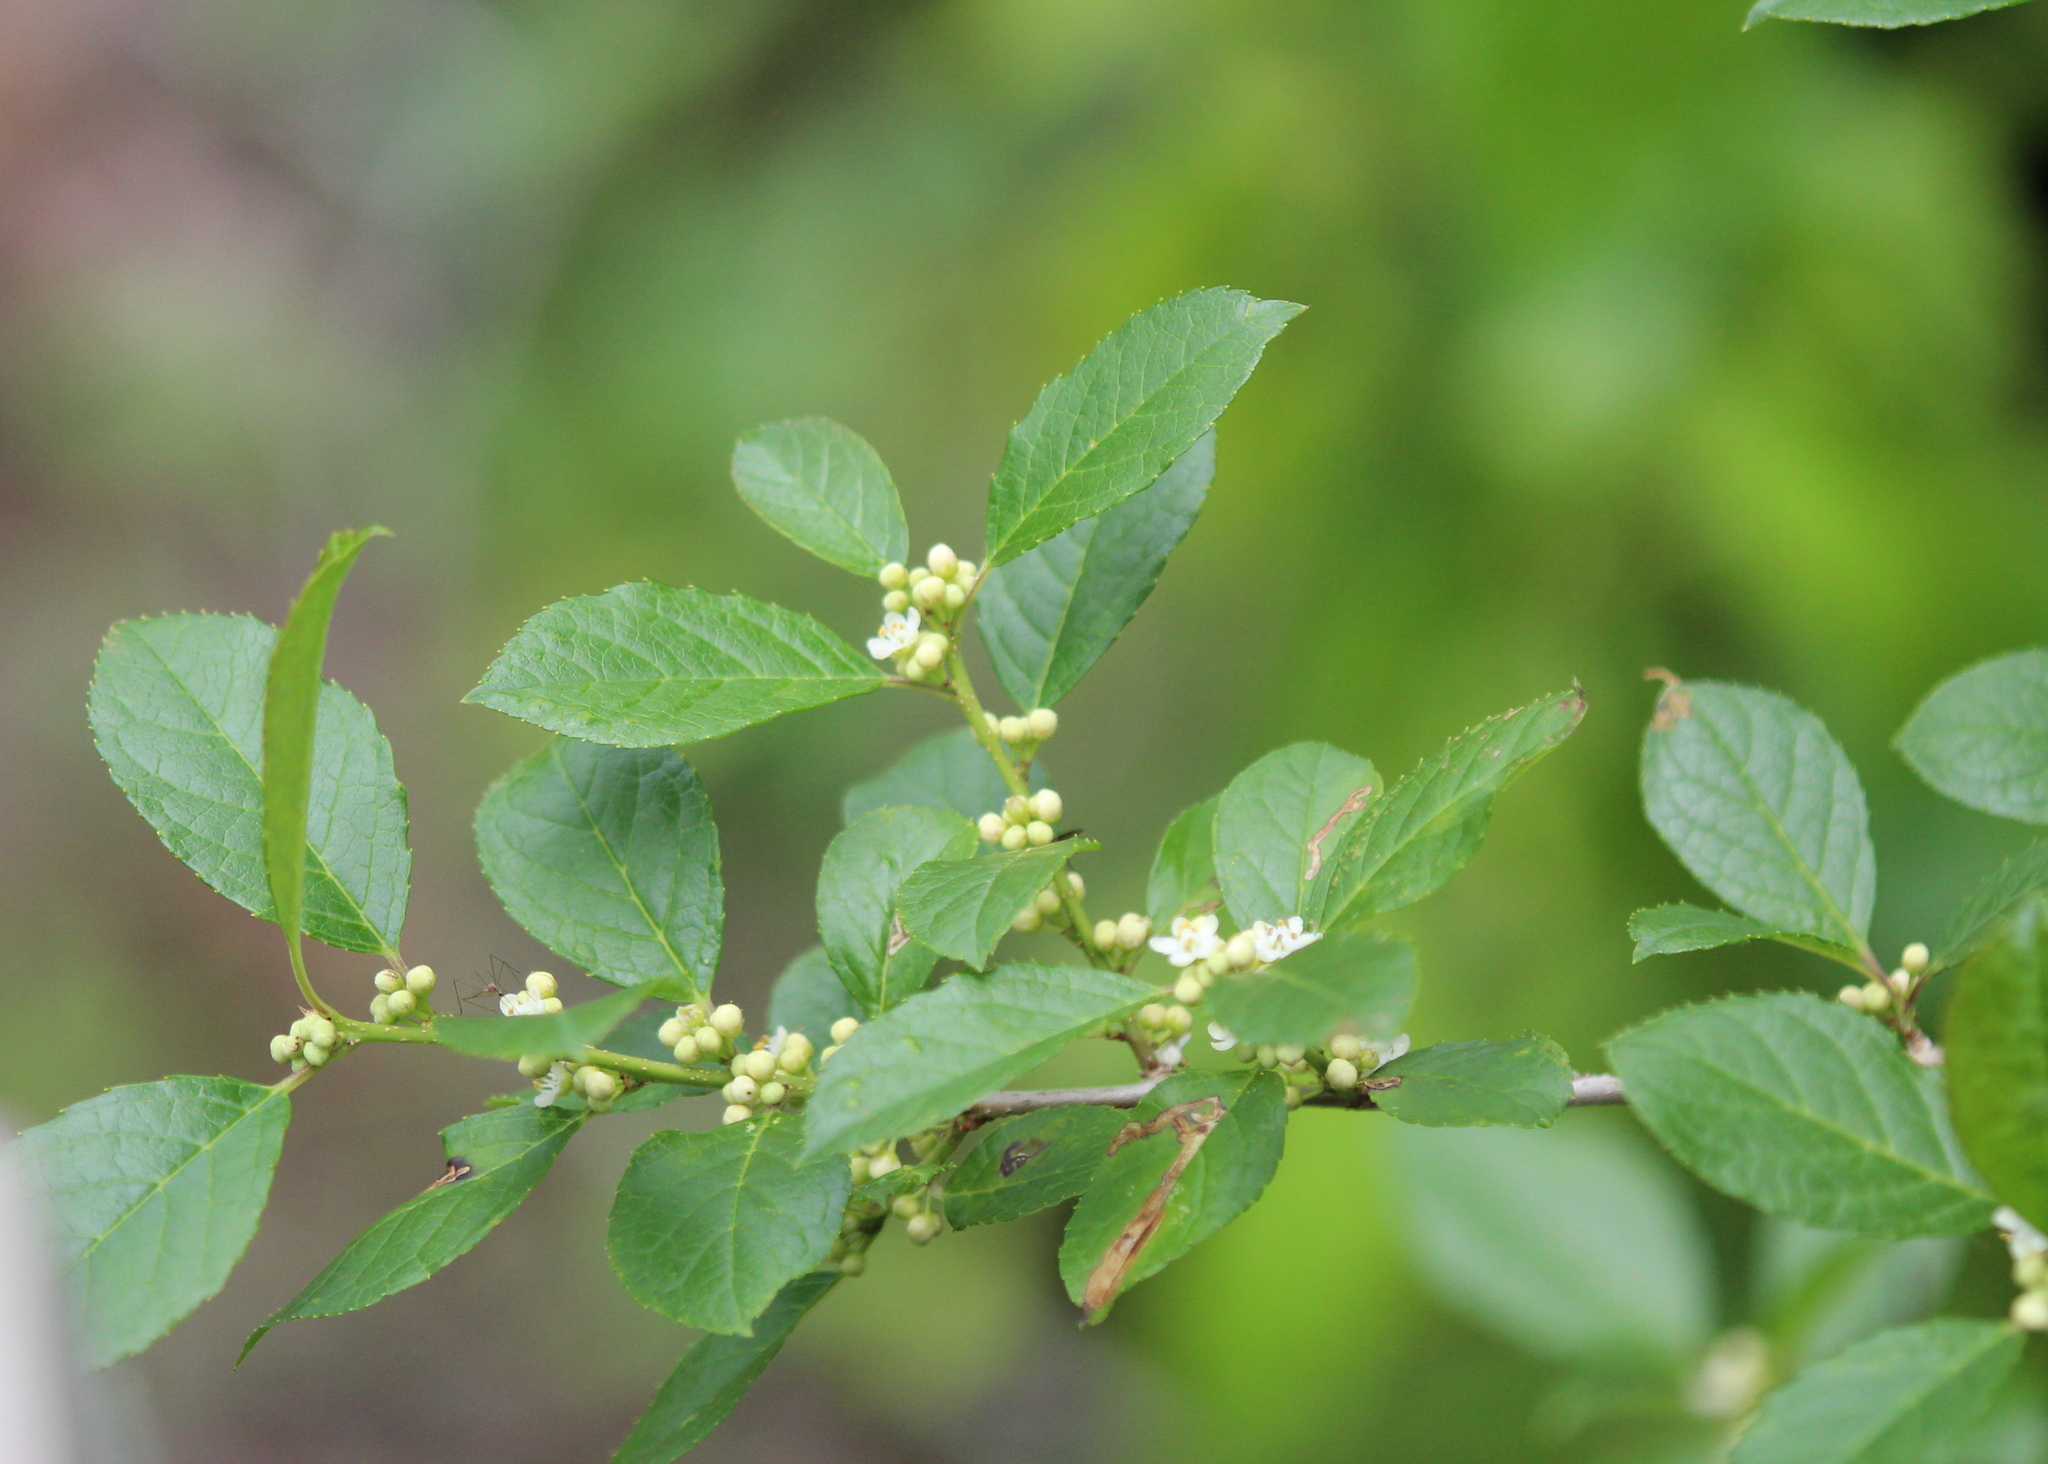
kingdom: Plantae
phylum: Tracheophyta
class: Magnoliopsida
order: Aquifoliales
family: Aquifoliaceae
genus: Ilex
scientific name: Ilex verticillata
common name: Virginia winterberry
